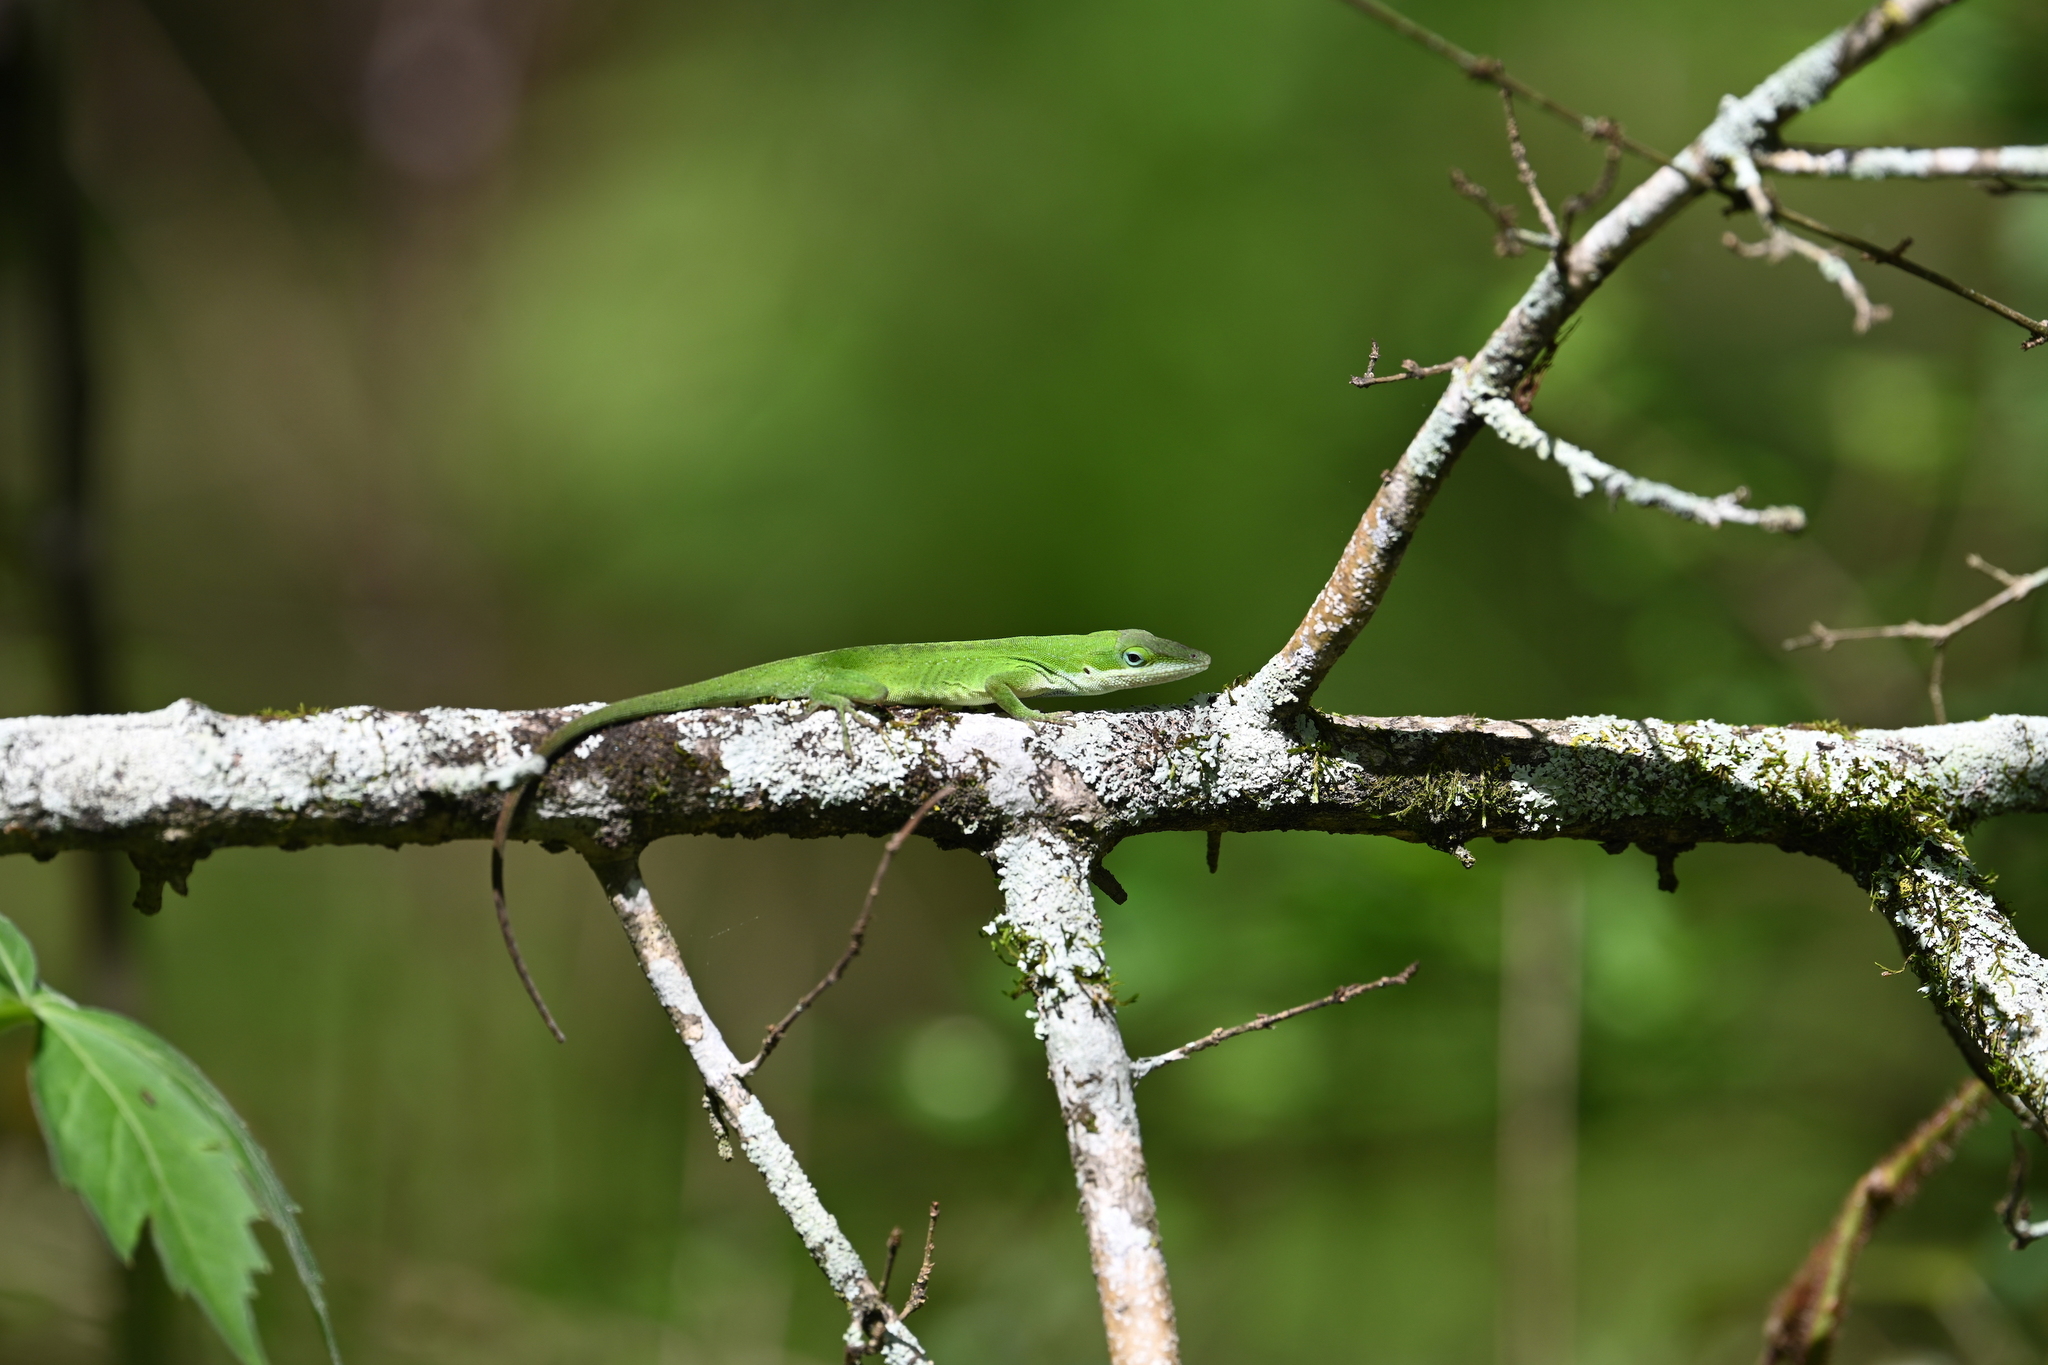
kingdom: Animalia
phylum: Chordata
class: Squamata
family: Dactyloidae
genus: Anolis
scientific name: Anolis carolinensis
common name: Green anole
